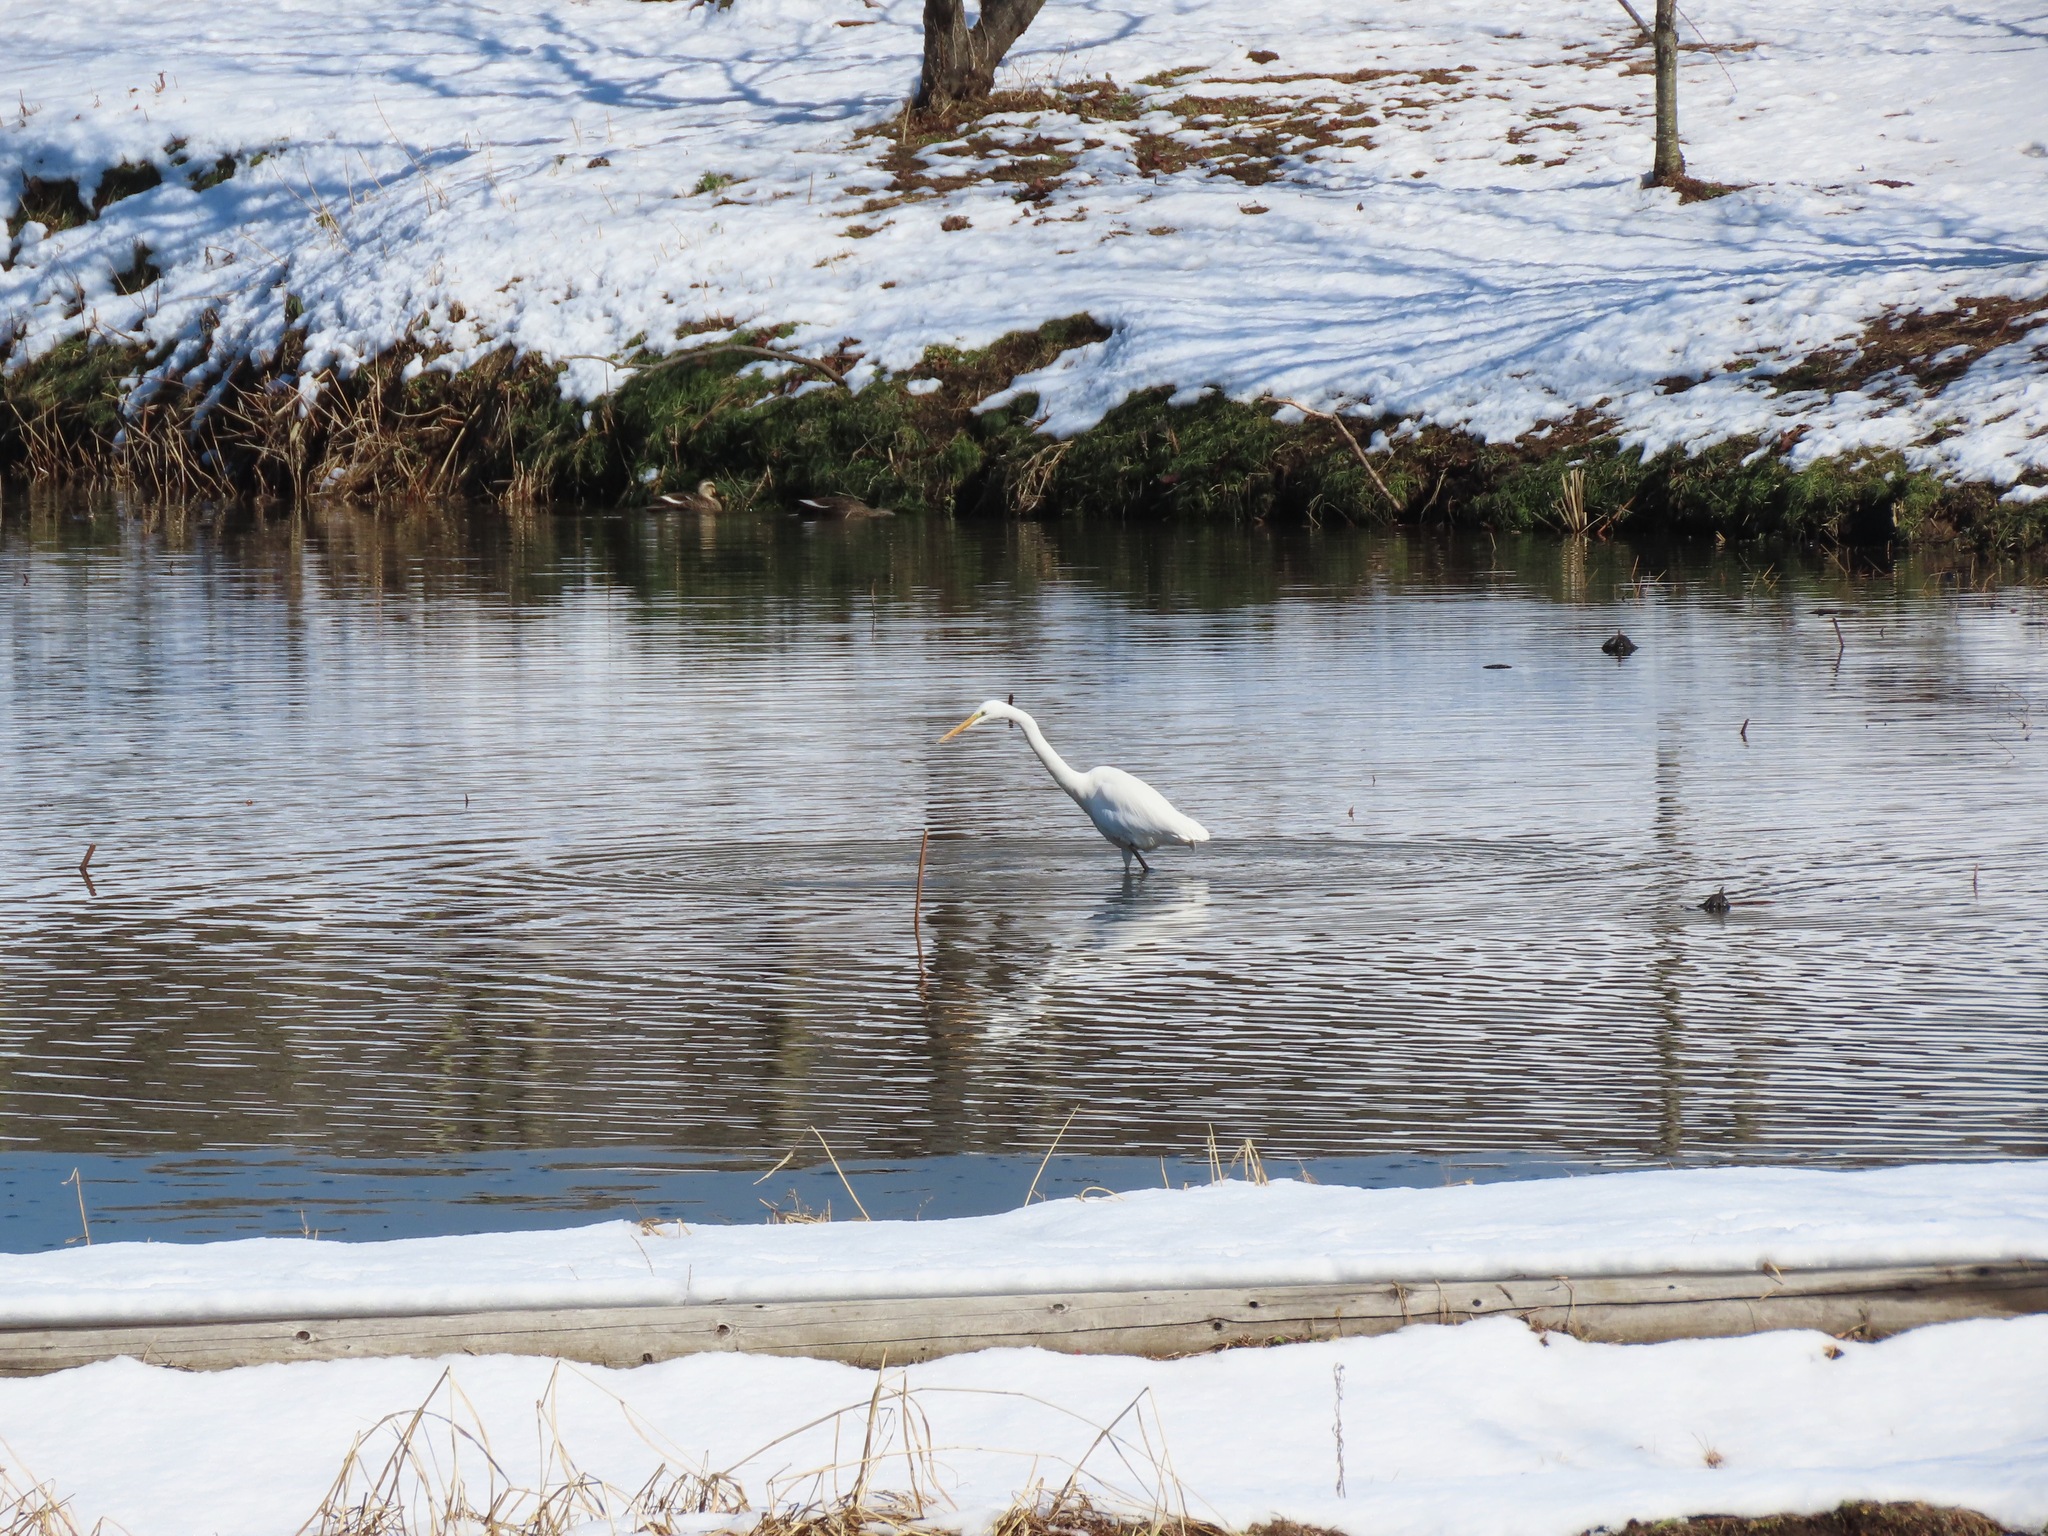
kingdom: Animalia
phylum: Chordata
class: Aves
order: Pelecaniformes
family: Ardeidae
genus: Ardea
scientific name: Ardea alba
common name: Great egret
